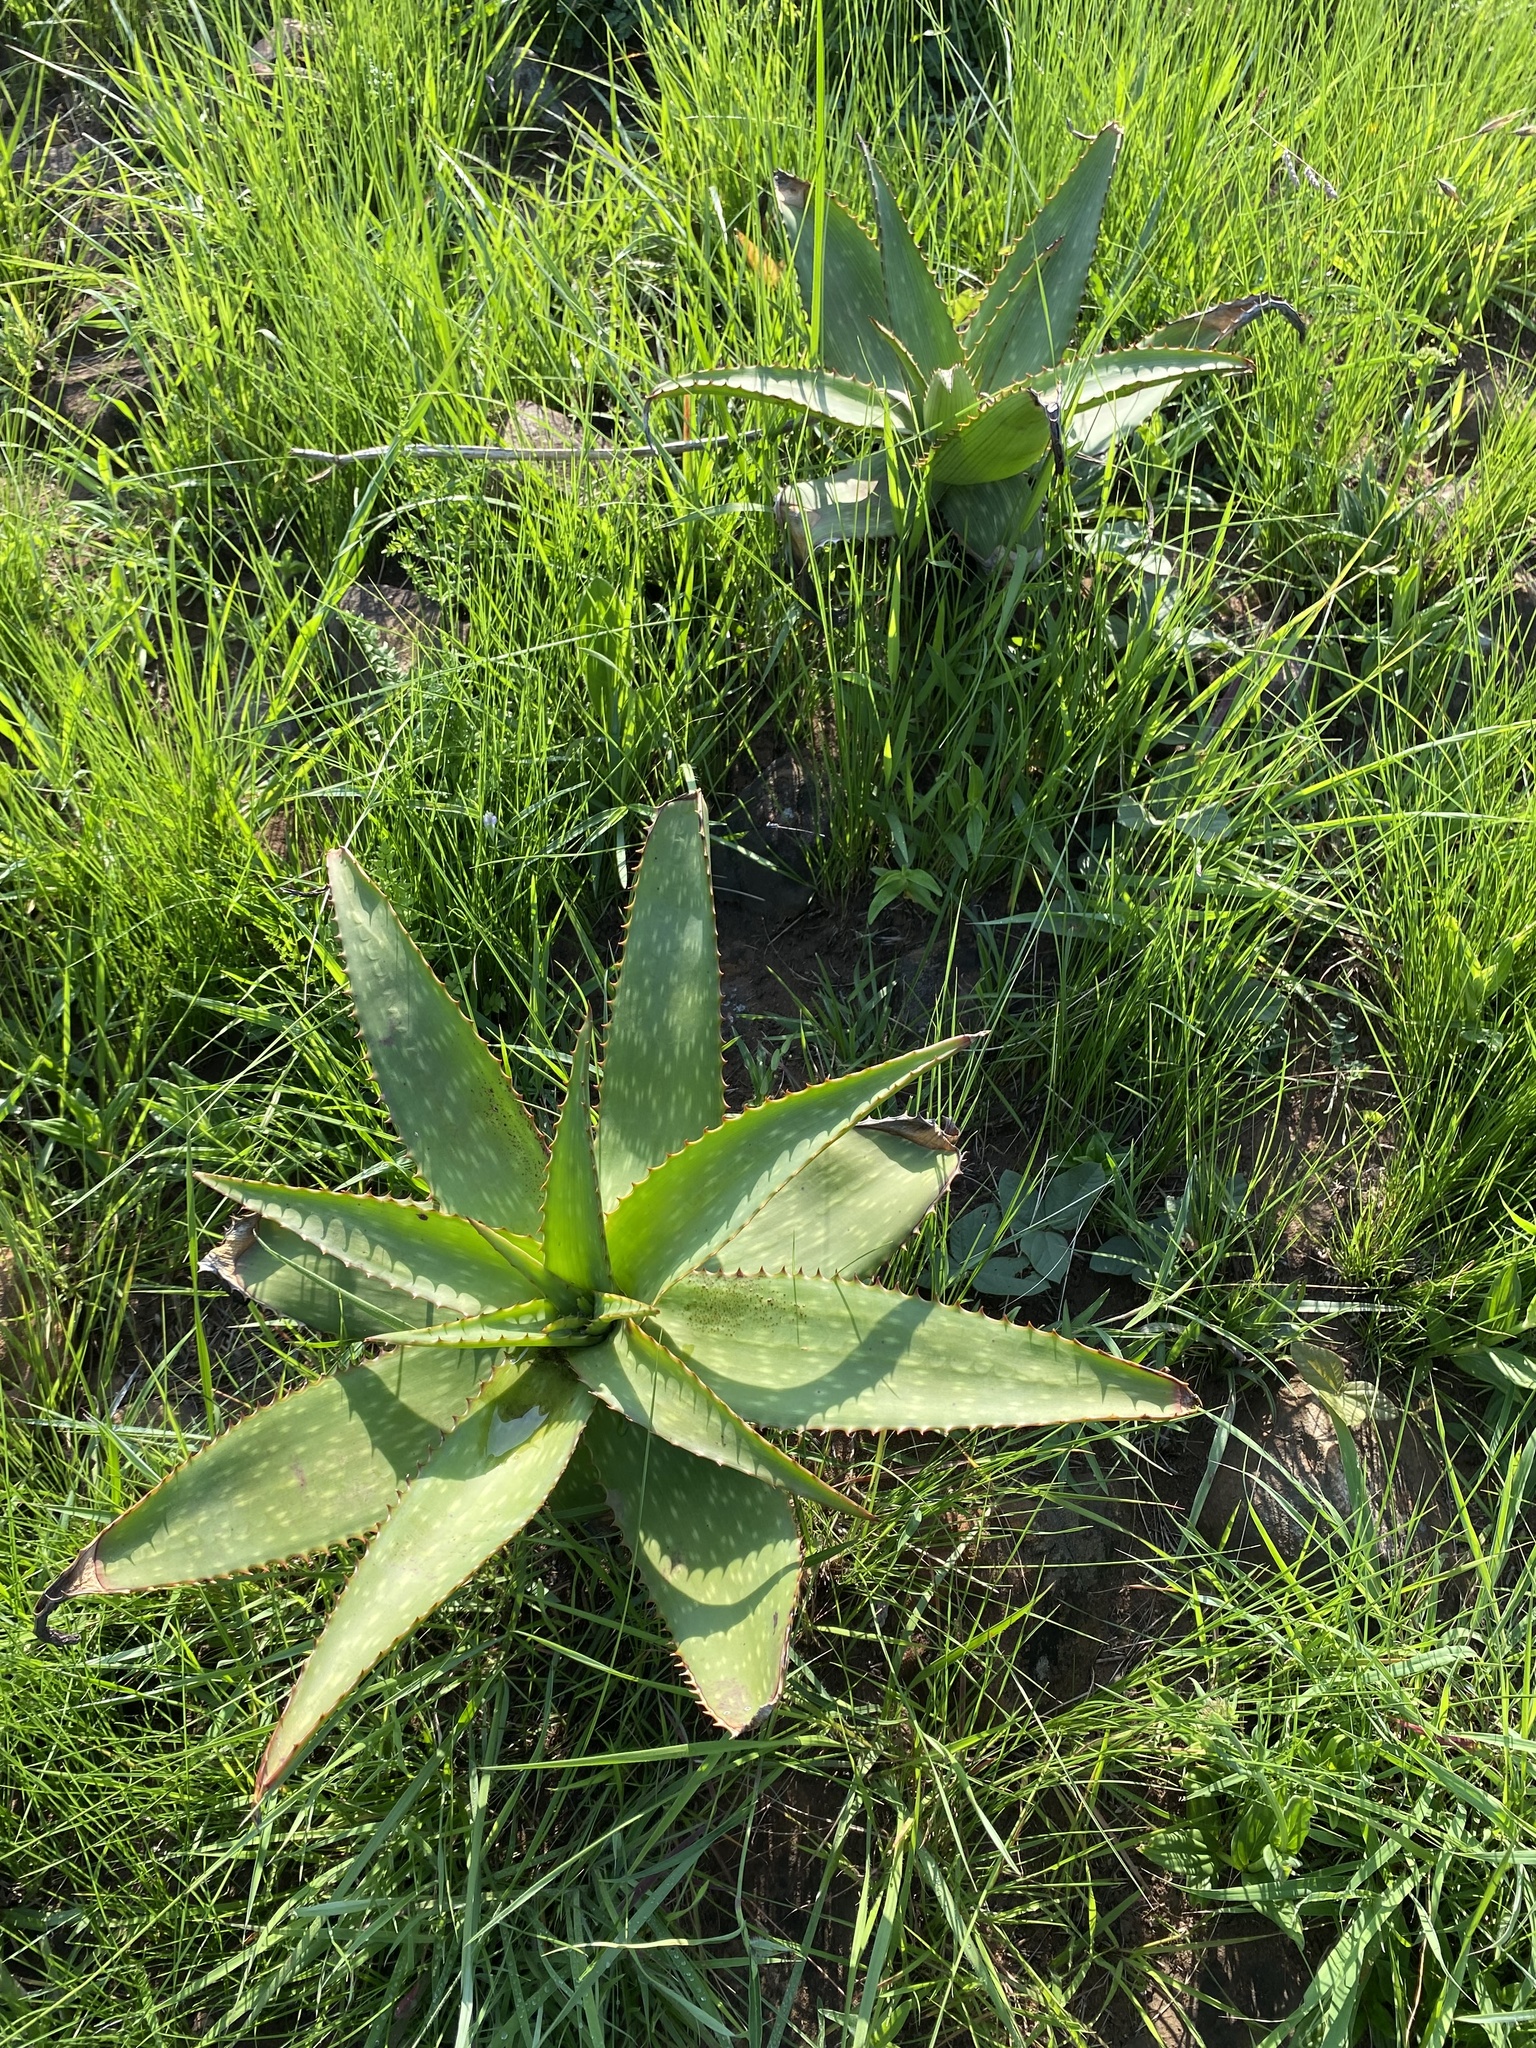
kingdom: Plantae
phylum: Tracheophyta
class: Liliopsida
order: Asparagales
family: Asphodelaceae
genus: Aloe
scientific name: Aloe maculata
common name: Broadleaf aloe
